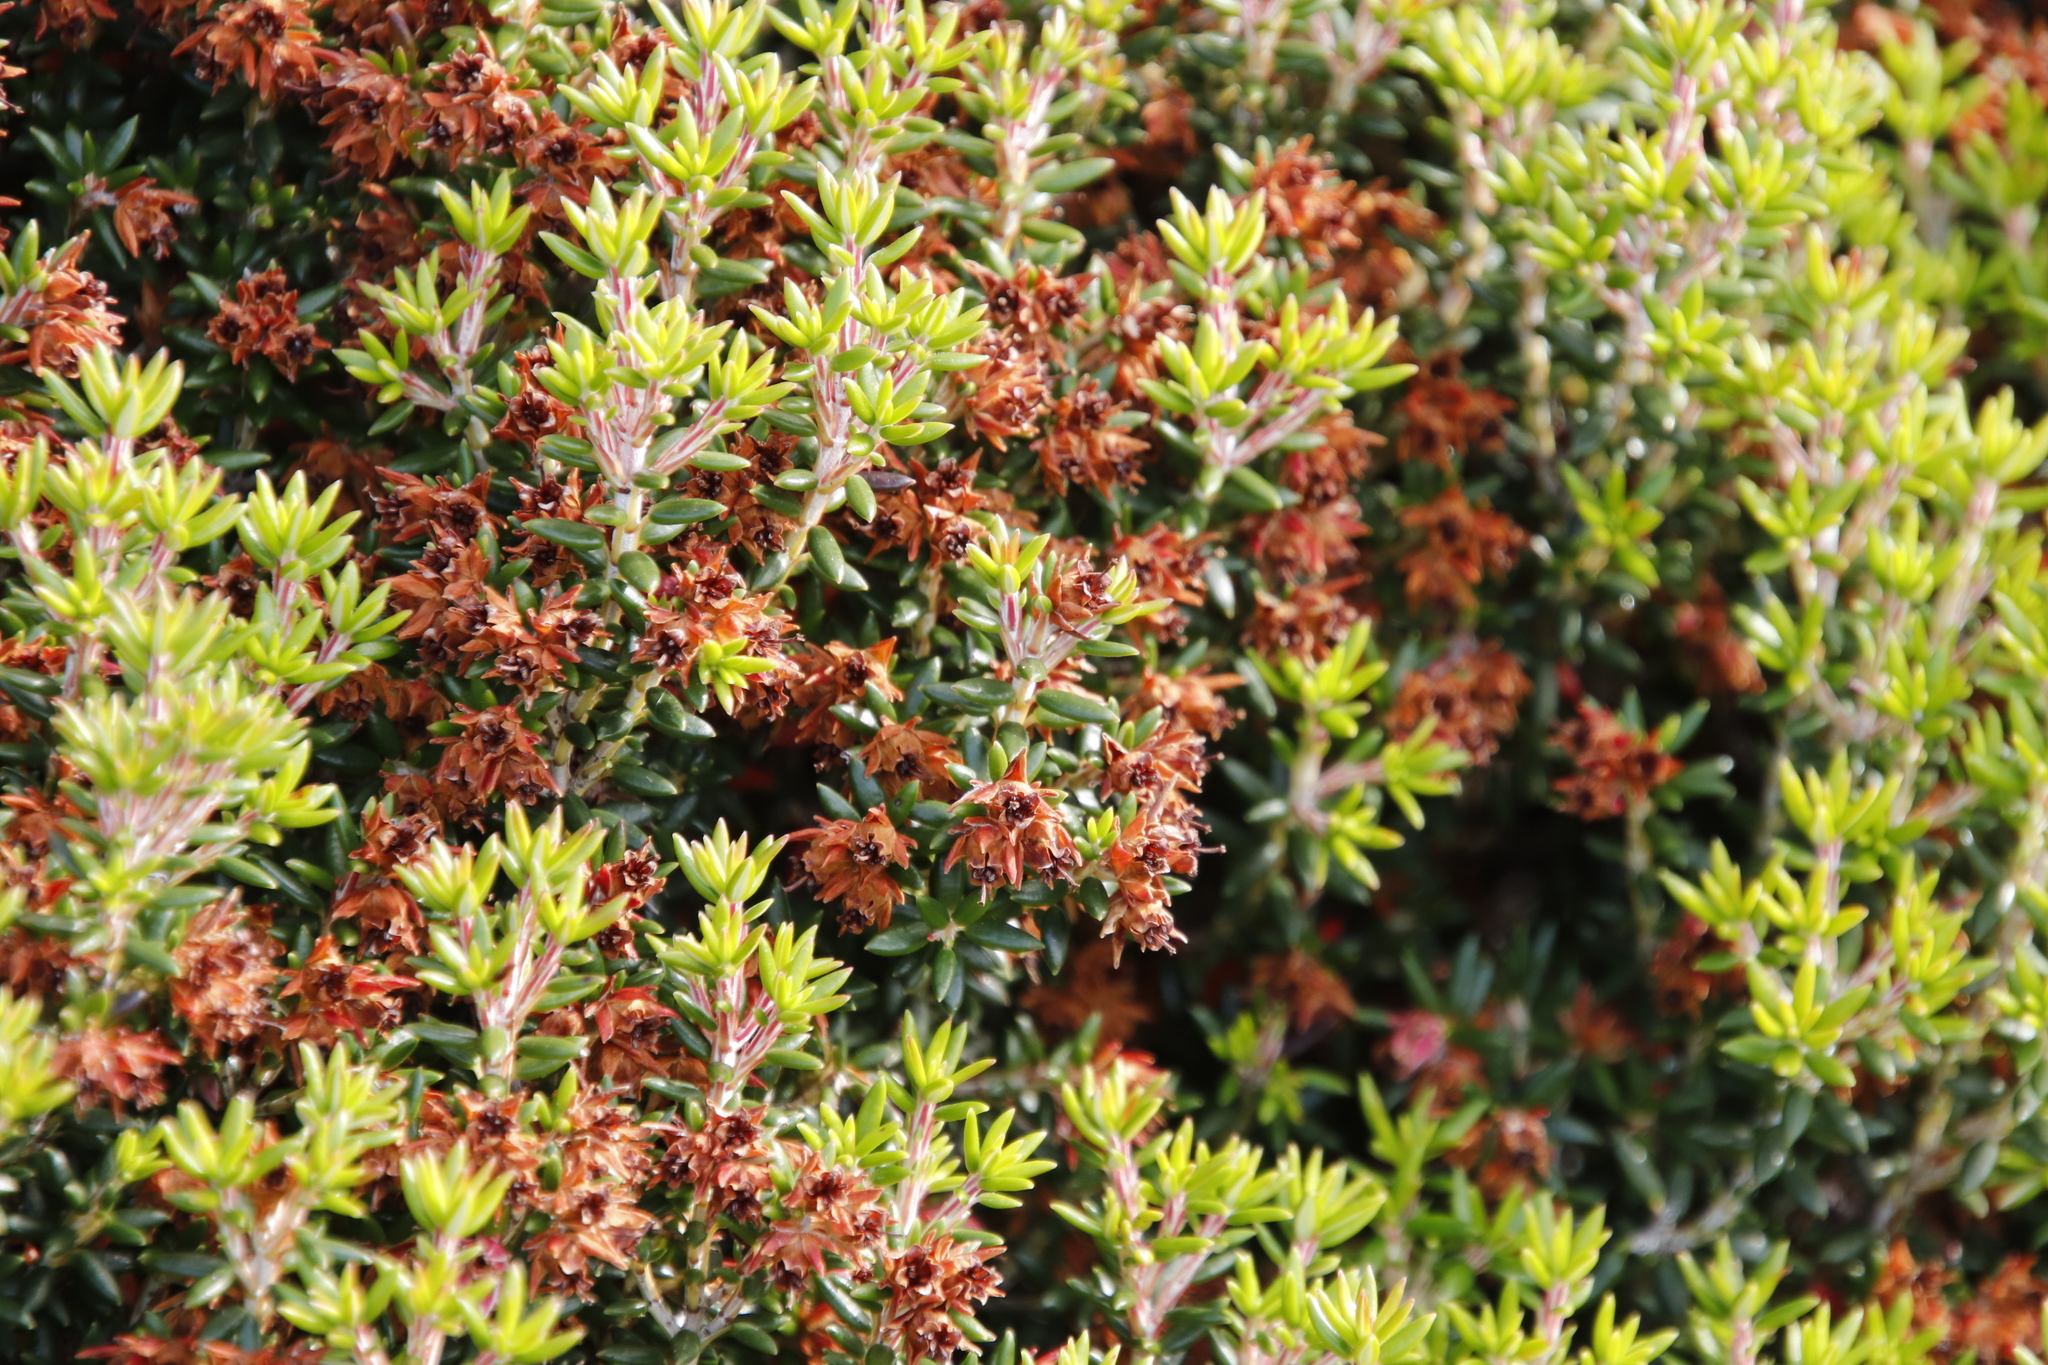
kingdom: Plantae
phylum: Tracheophyta
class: Magnoliopsida
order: Ericales
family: Ericaceae
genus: Erica
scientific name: Erica petiolaris
